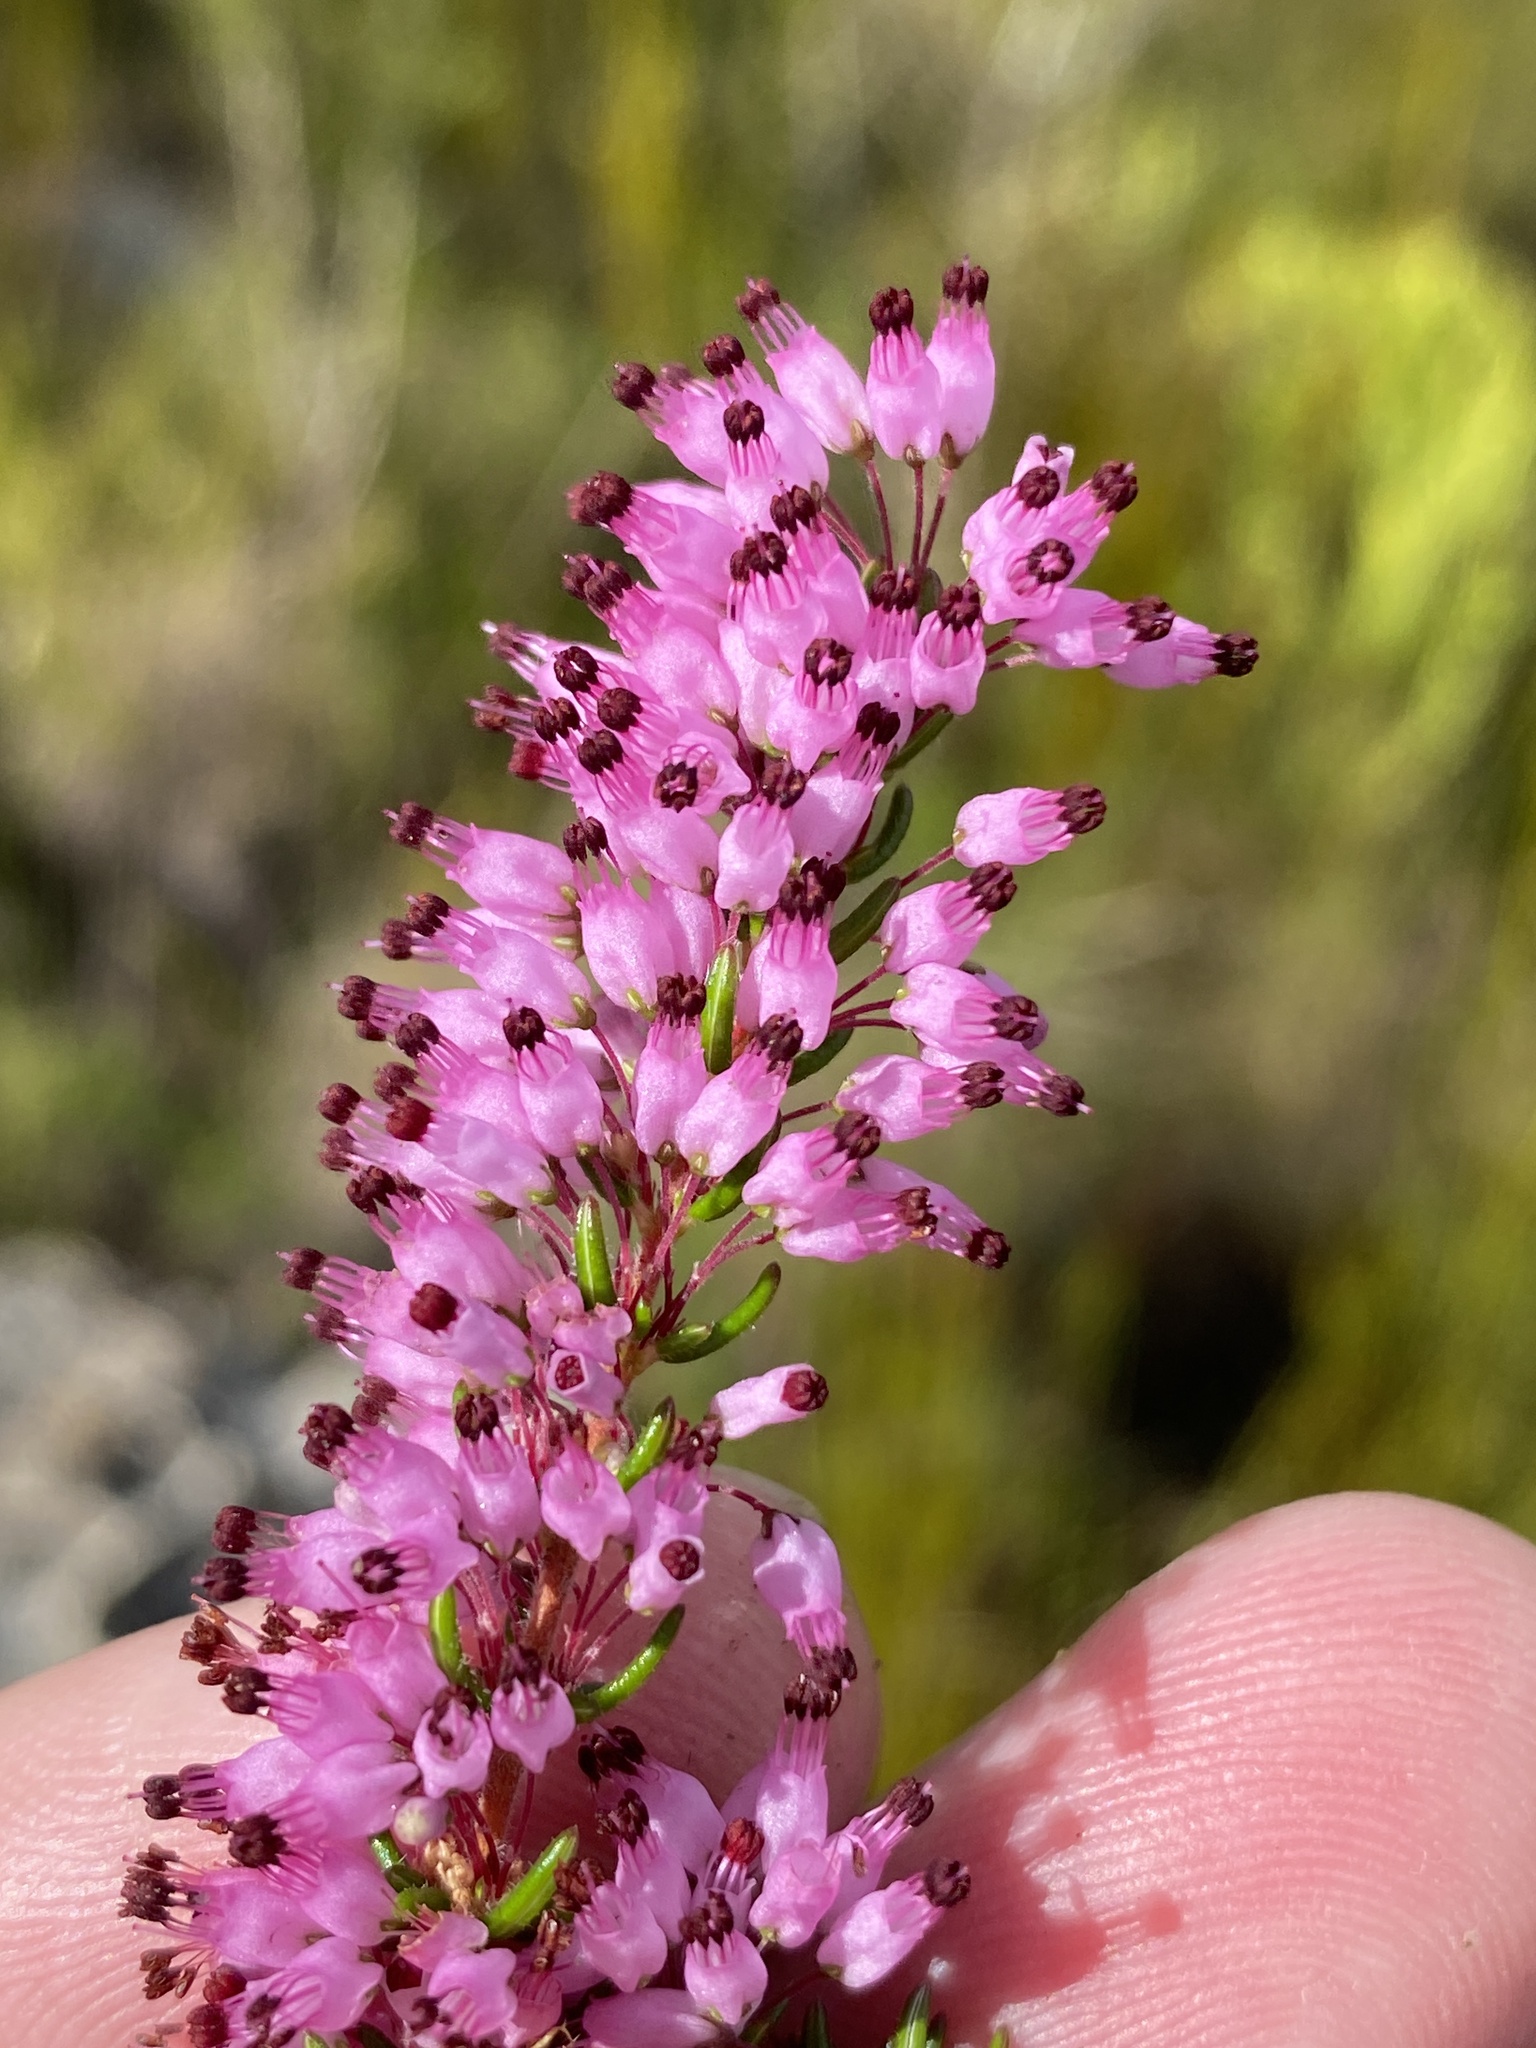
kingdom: Plantae
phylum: Tracheophyta
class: Magnoliopsida
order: Ericales
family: Ericaceae
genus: Erica
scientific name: Erica nudiflora
